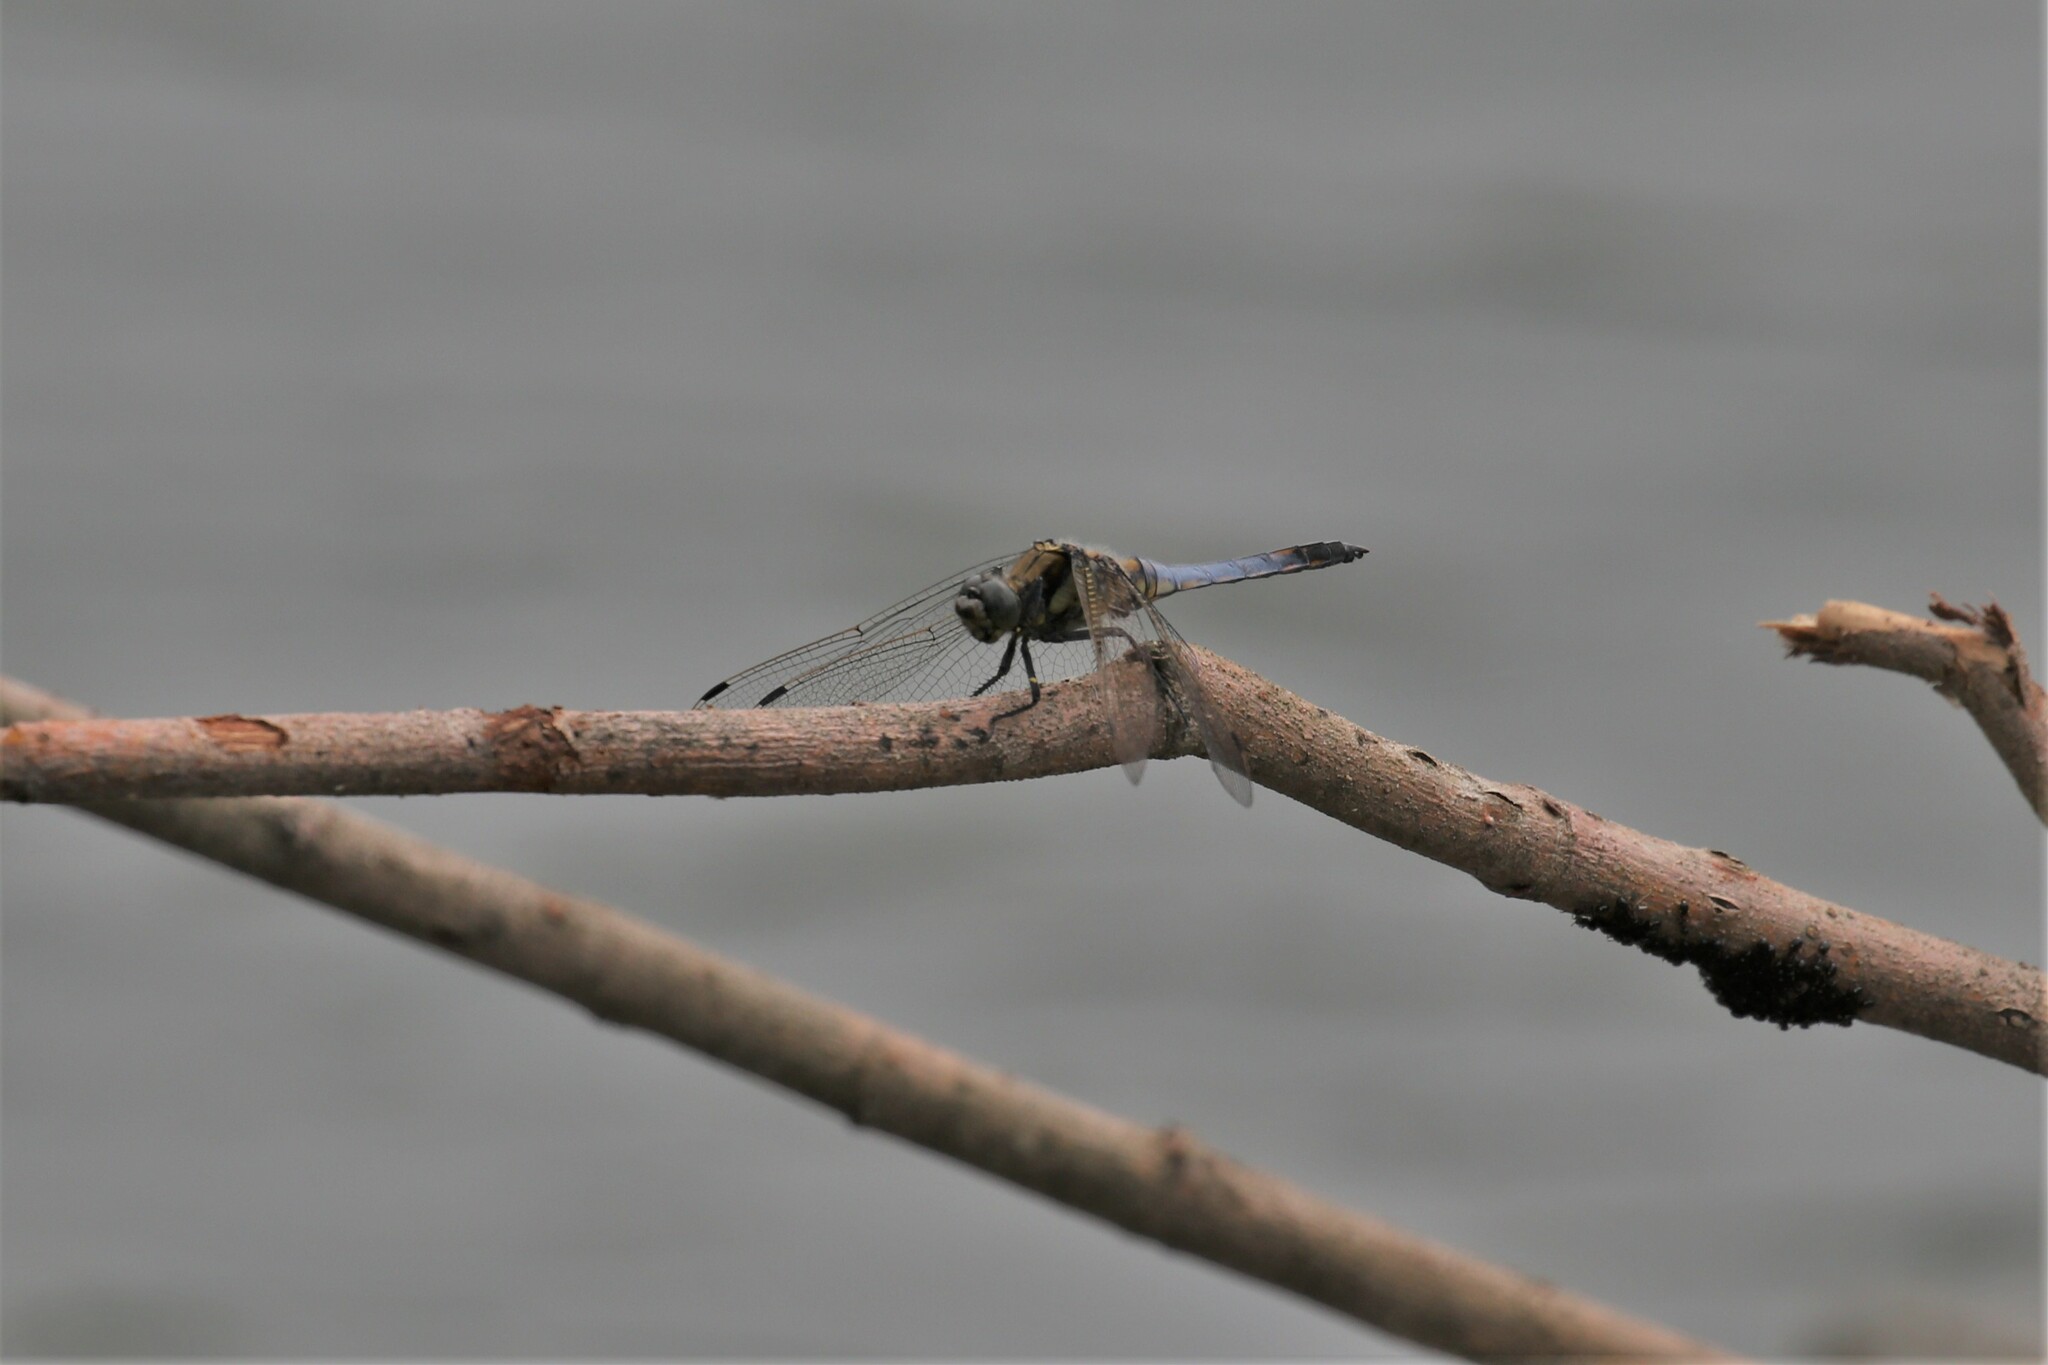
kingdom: Animalia
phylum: Arthropoda
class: Insecta
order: Odonata
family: Libellulidae
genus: Orthetrum
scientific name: Orthetrum cancellatum
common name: Black-tailed skimmer
